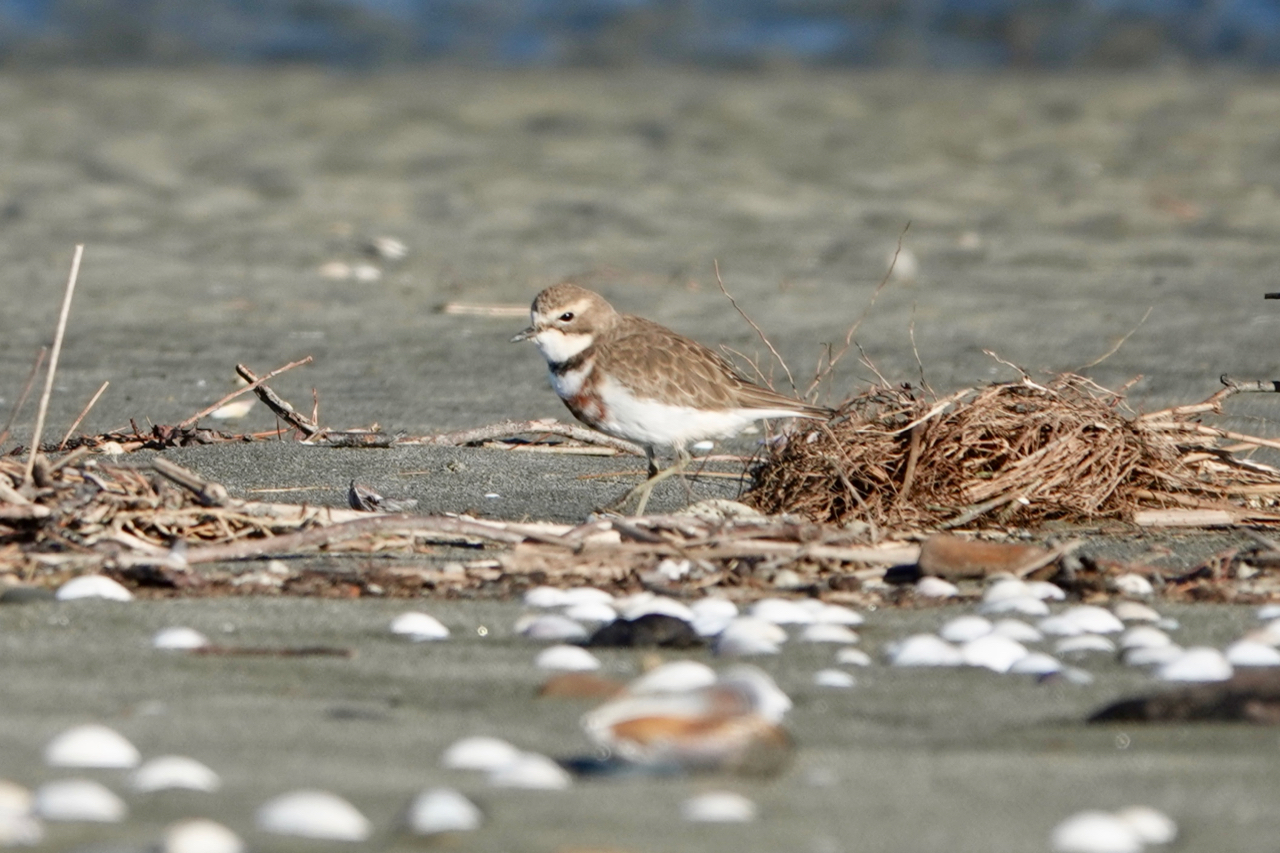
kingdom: Animalia
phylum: Chordata
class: Aves
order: Charadriiformes
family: Charadriidae
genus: Anarhynchus
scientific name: Anarhynchus
